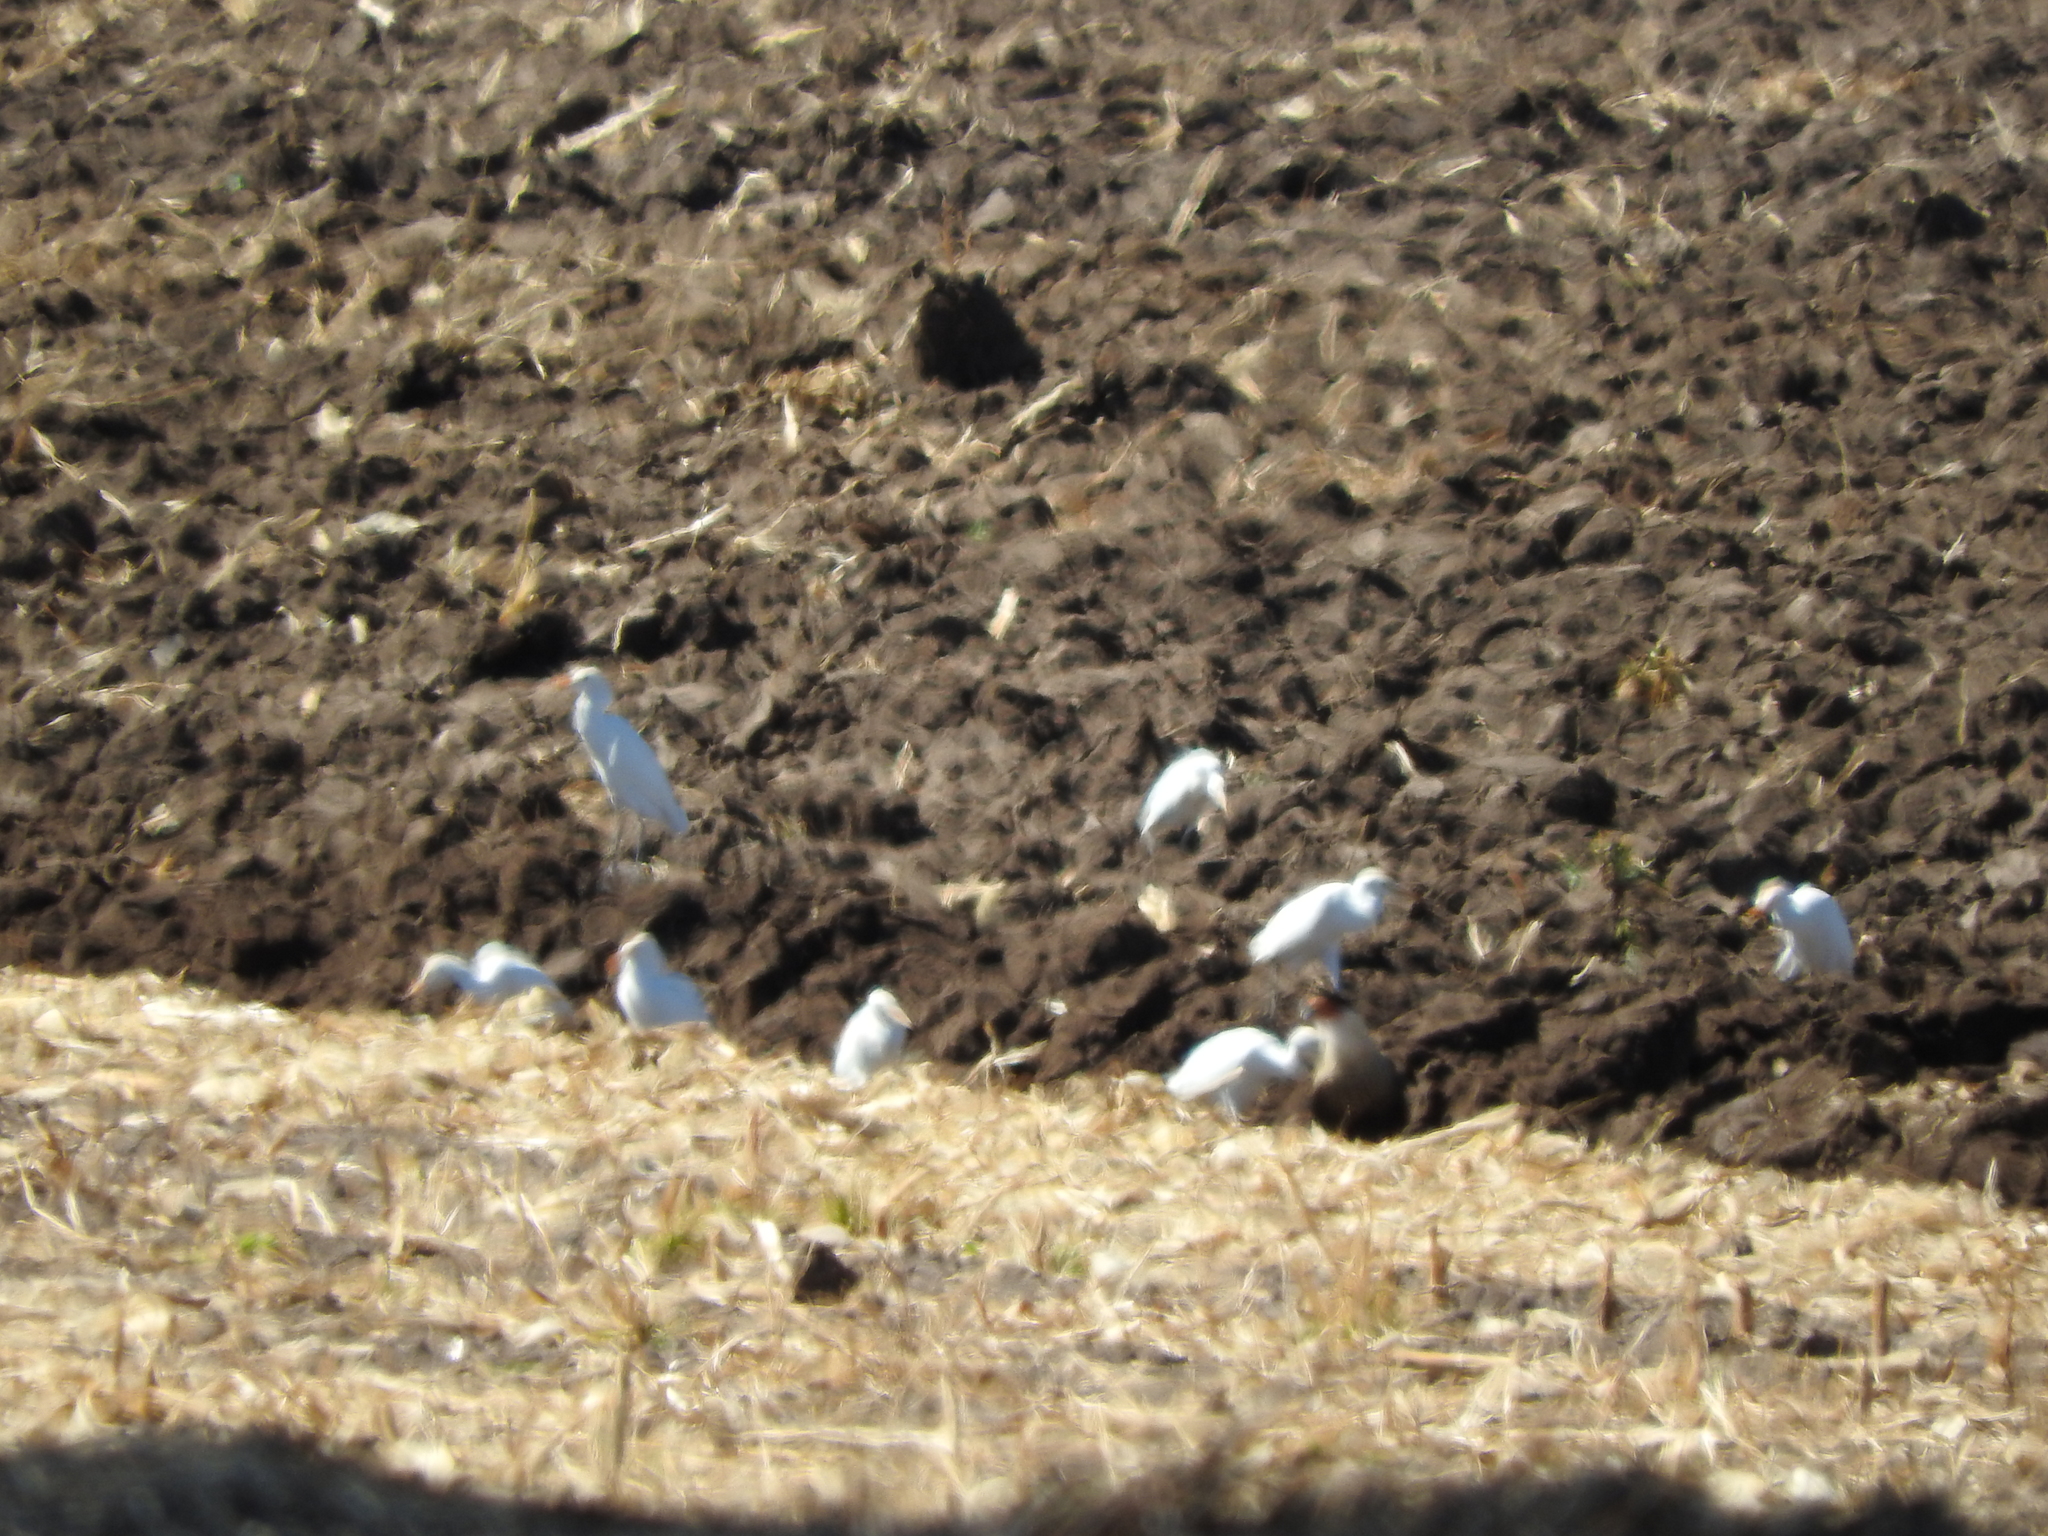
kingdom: Animalia
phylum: Chordata
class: Aves
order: Falconiformes
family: Falconidae
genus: Caracara
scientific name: Caracara plancus
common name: Southern caracara
